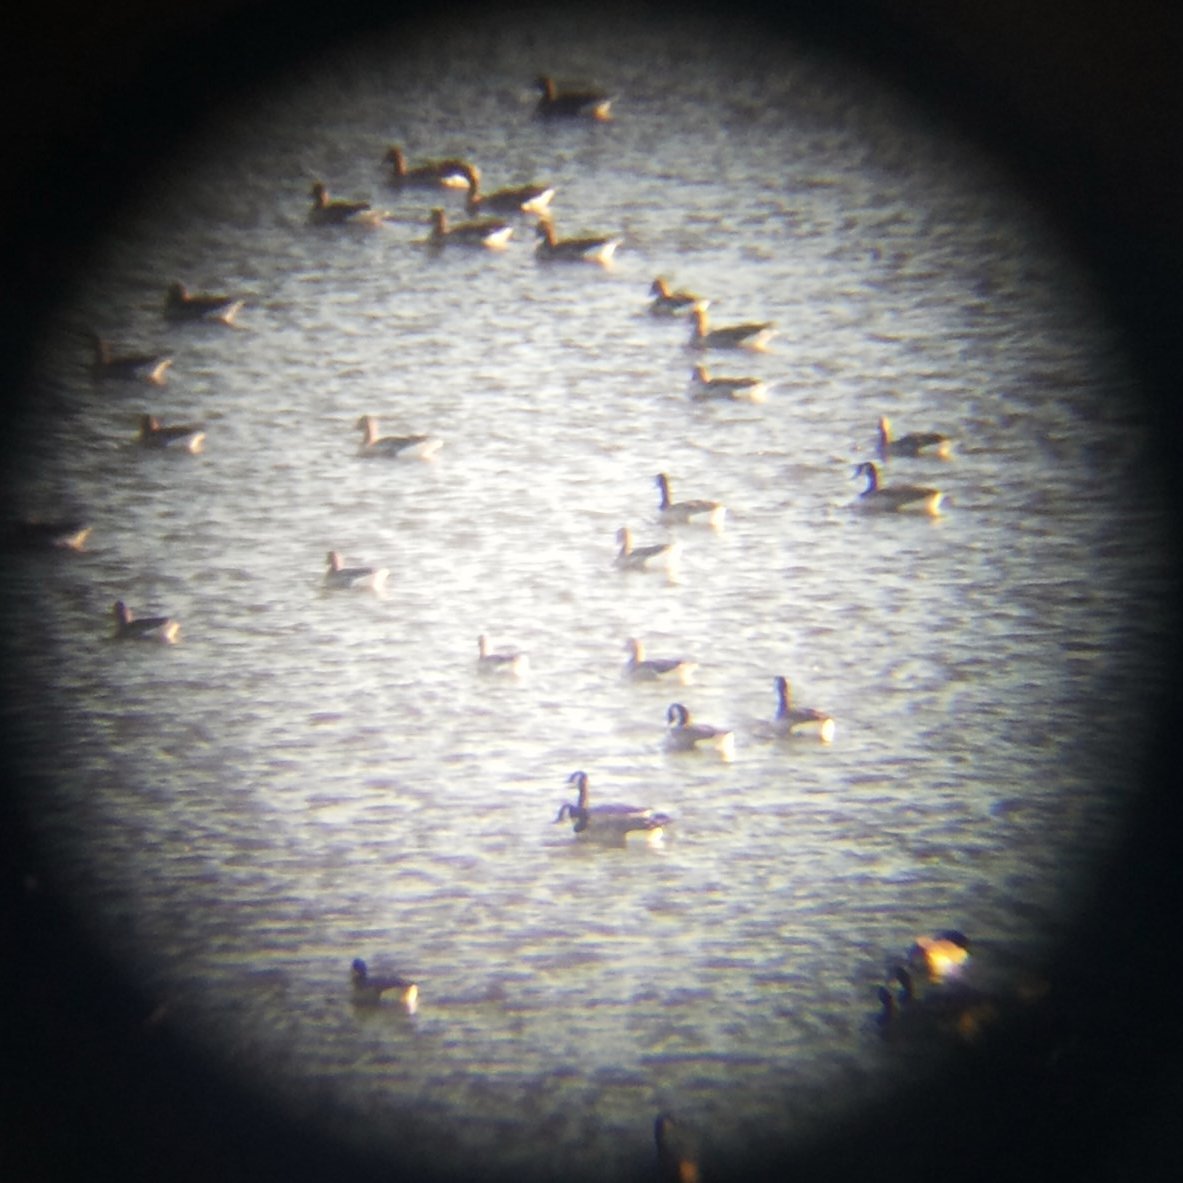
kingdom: Animalia
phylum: Chordata
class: Aves
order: Anseriformes
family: Anatidae
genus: Anser
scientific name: Anser anser
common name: Greylag goose
